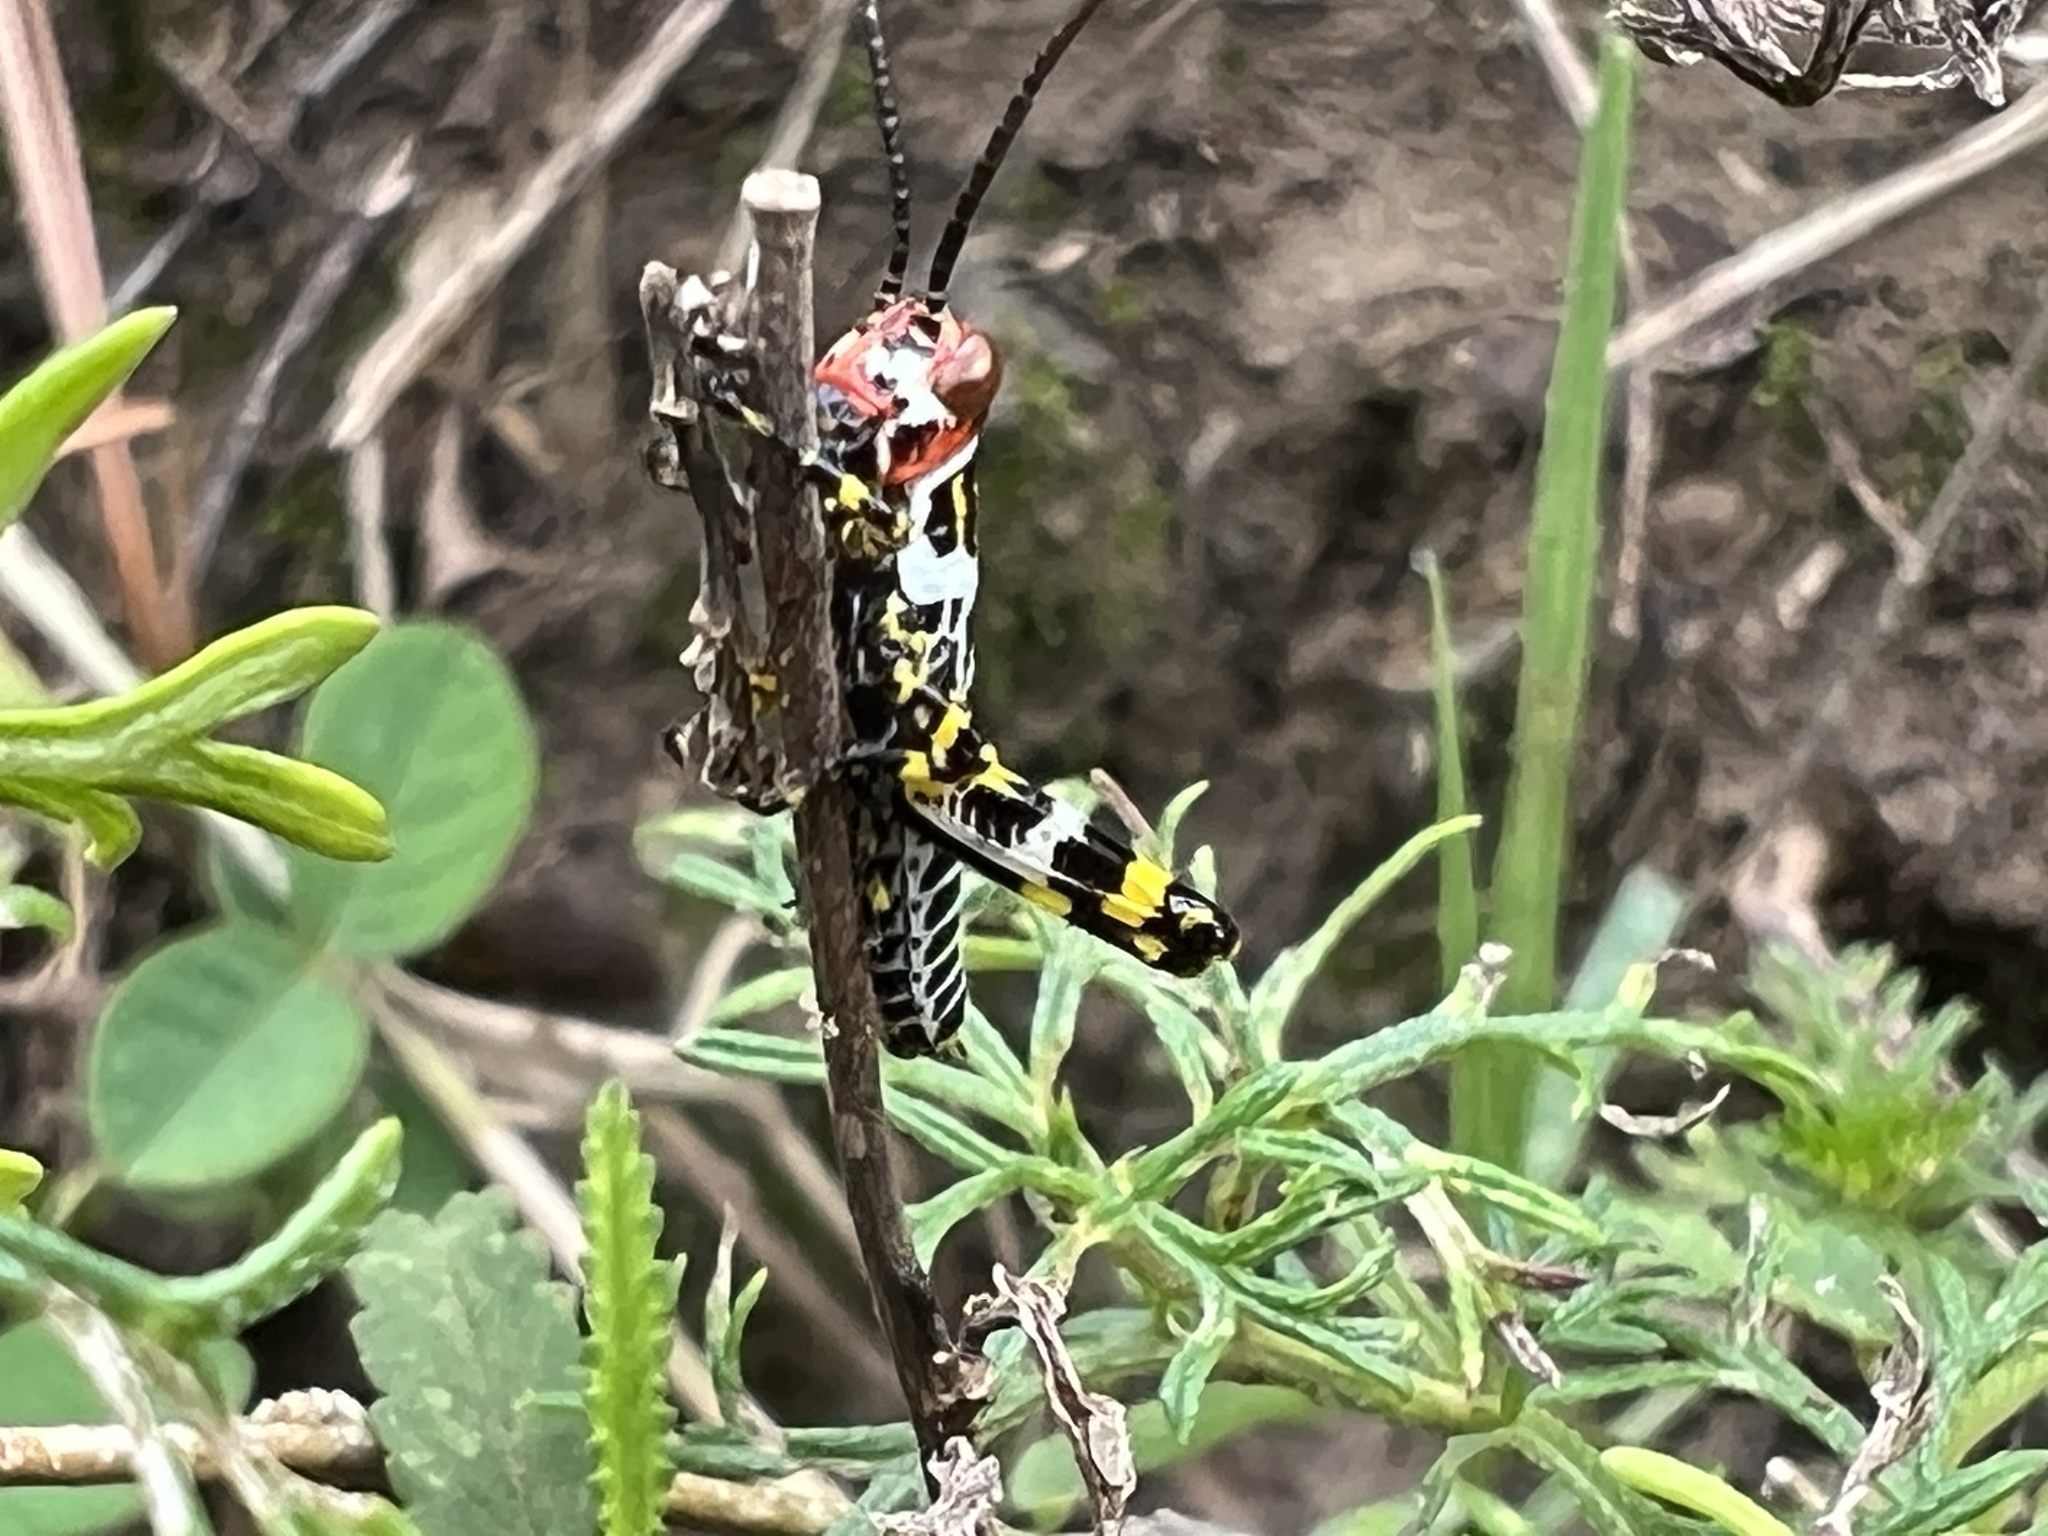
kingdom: Animalia
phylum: Arthropoda
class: Insecta
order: Orthoptera
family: Romaleidae
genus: Zoniopoda
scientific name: Zoniopoda omnicolor
